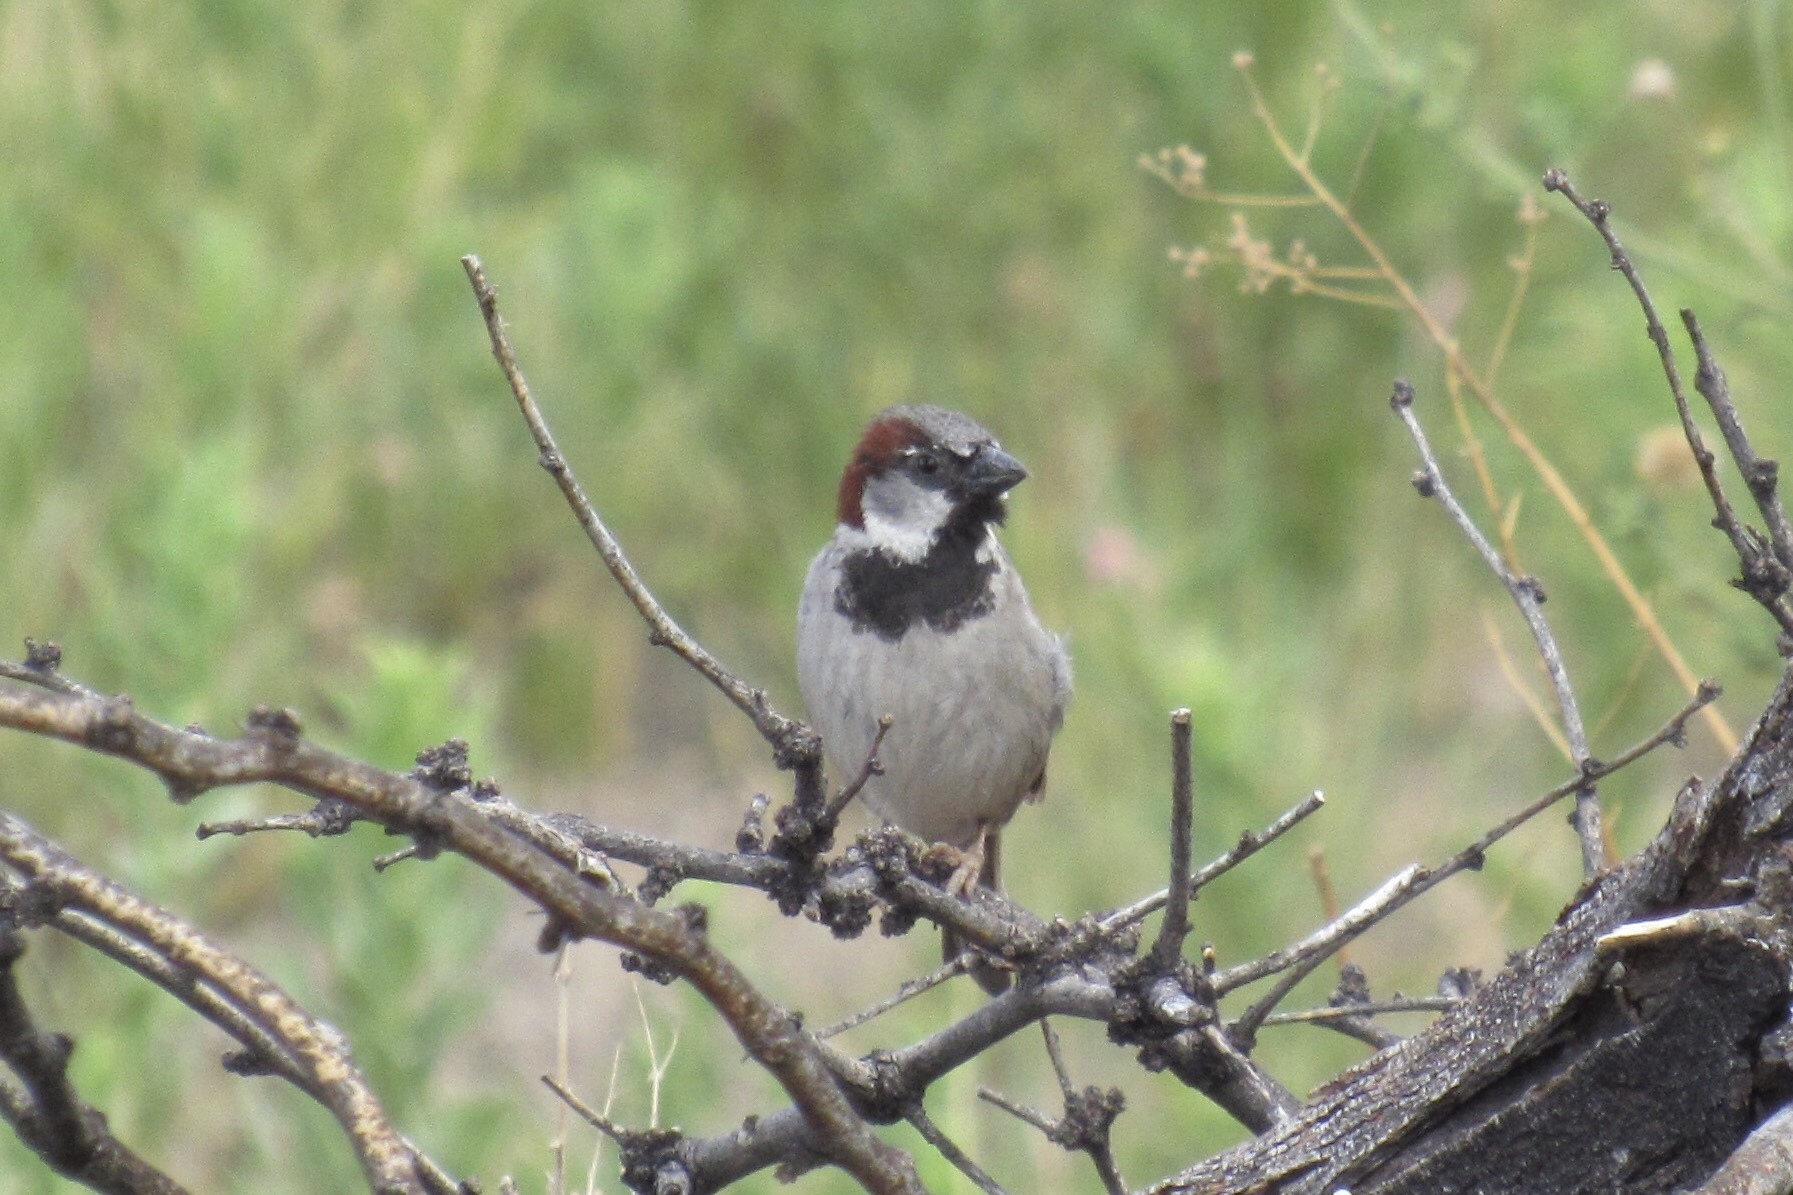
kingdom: Animalia
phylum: Chordata
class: Aves
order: Passeriformes
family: Passeridae
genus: Passer
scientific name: Passer domesticus
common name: House sparrow
